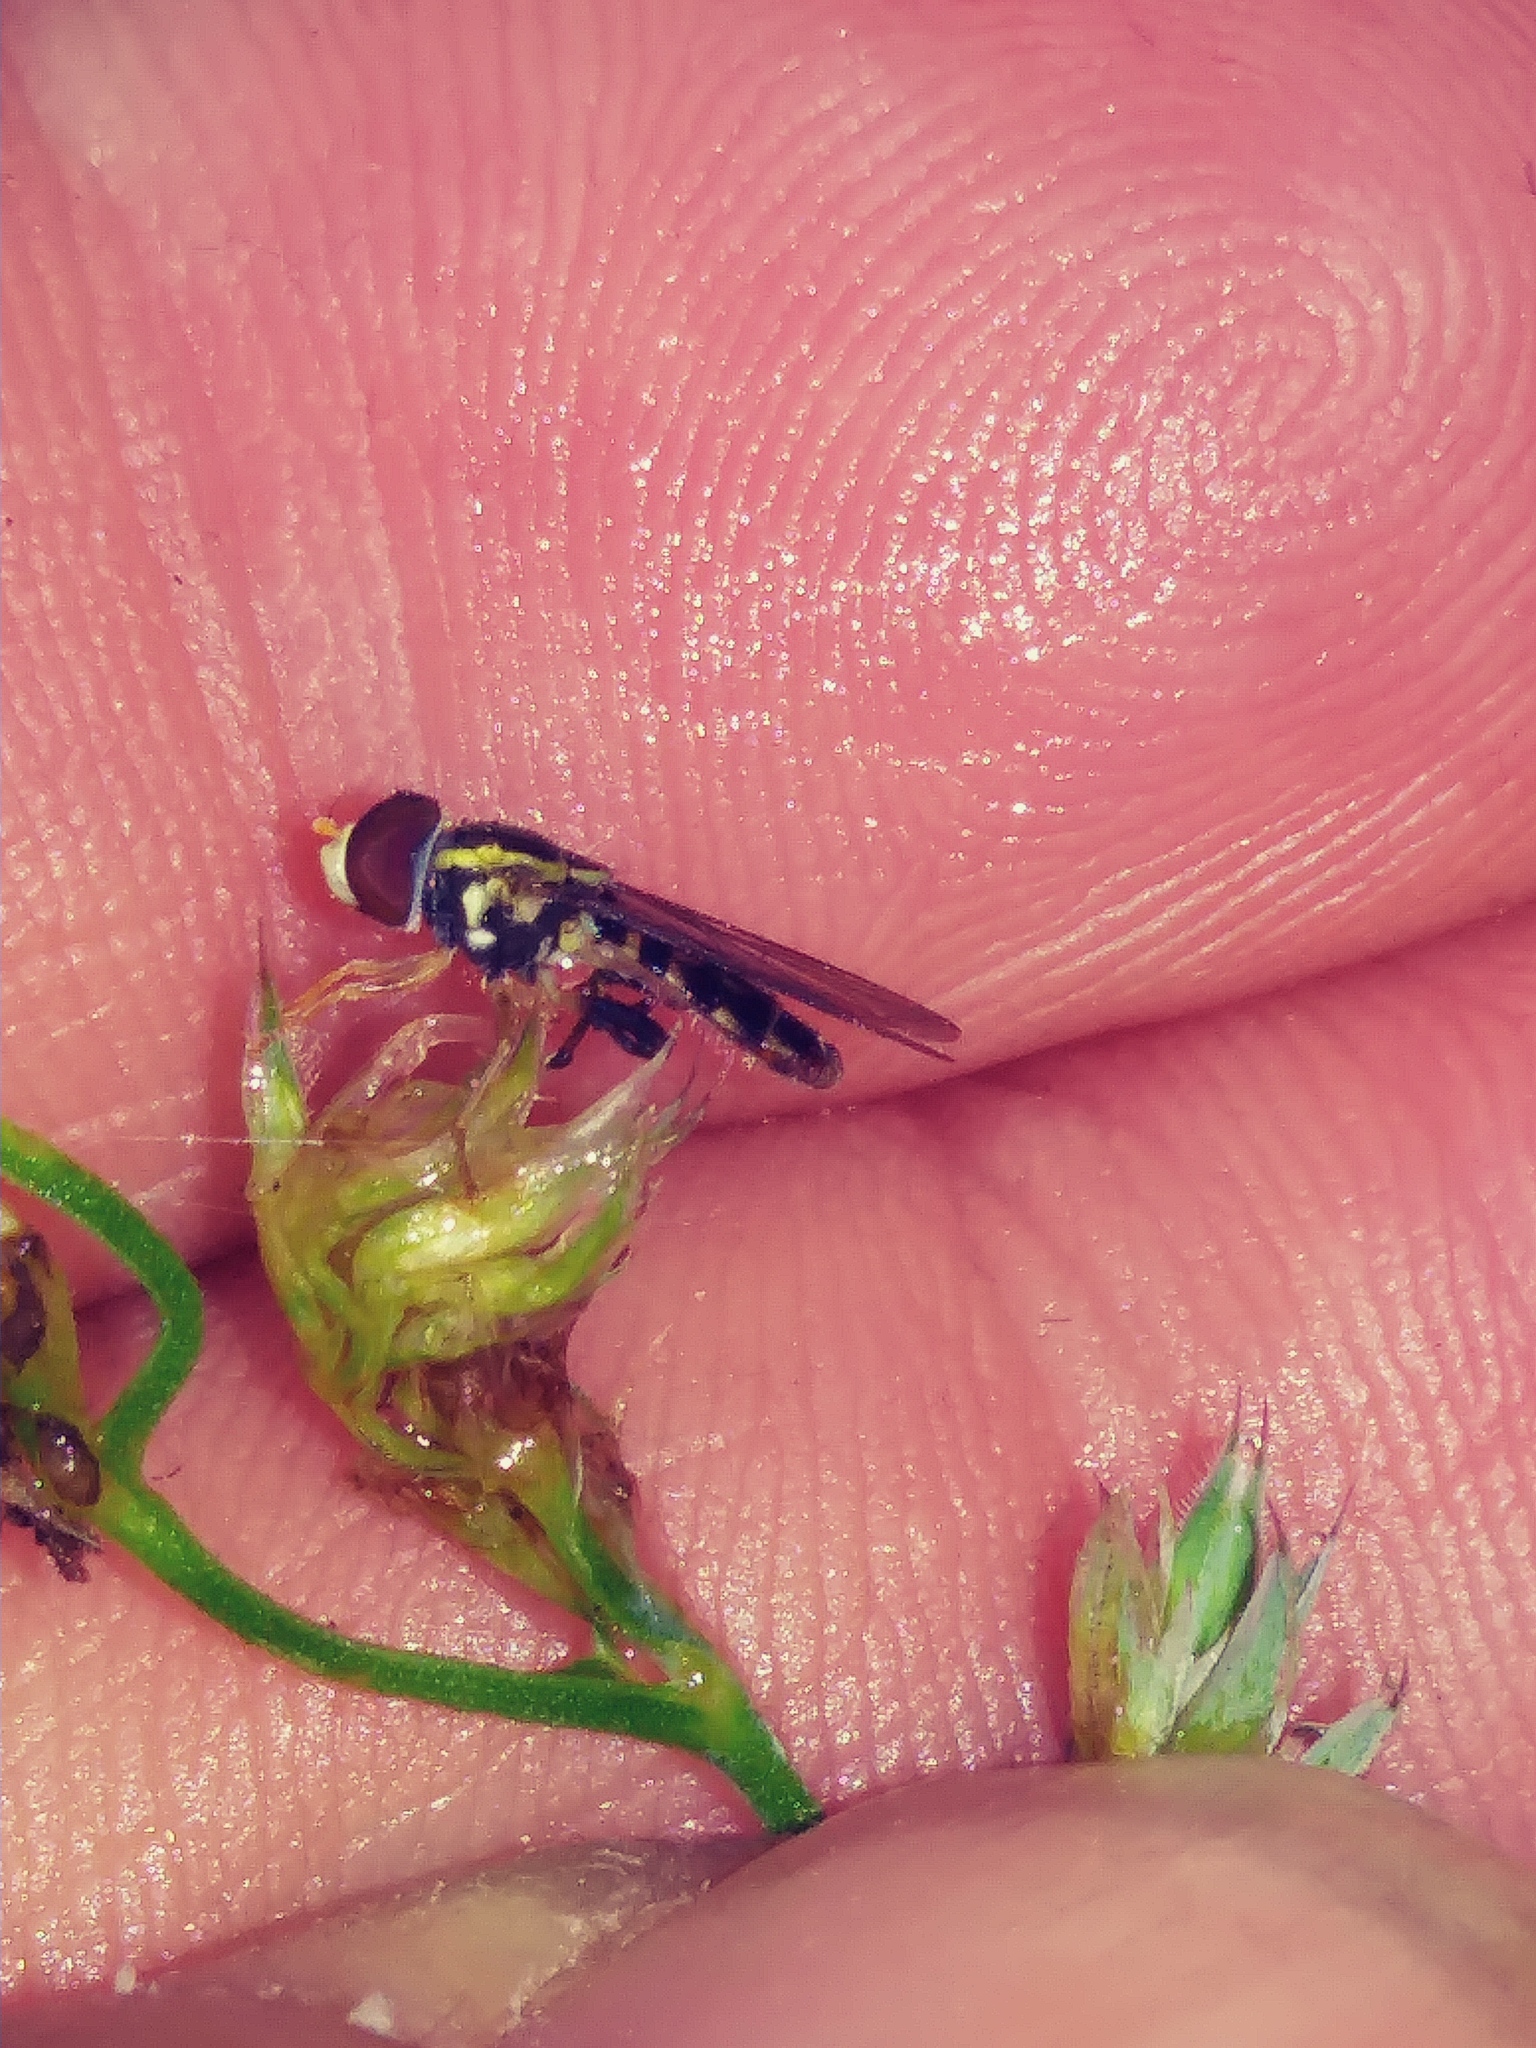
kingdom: Animalia
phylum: Arthropoda
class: Insecta
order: Diptera
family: Syrphidae
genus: Toxomerus
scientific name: Toxomerus geminatus
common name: Eastern calligrapher
